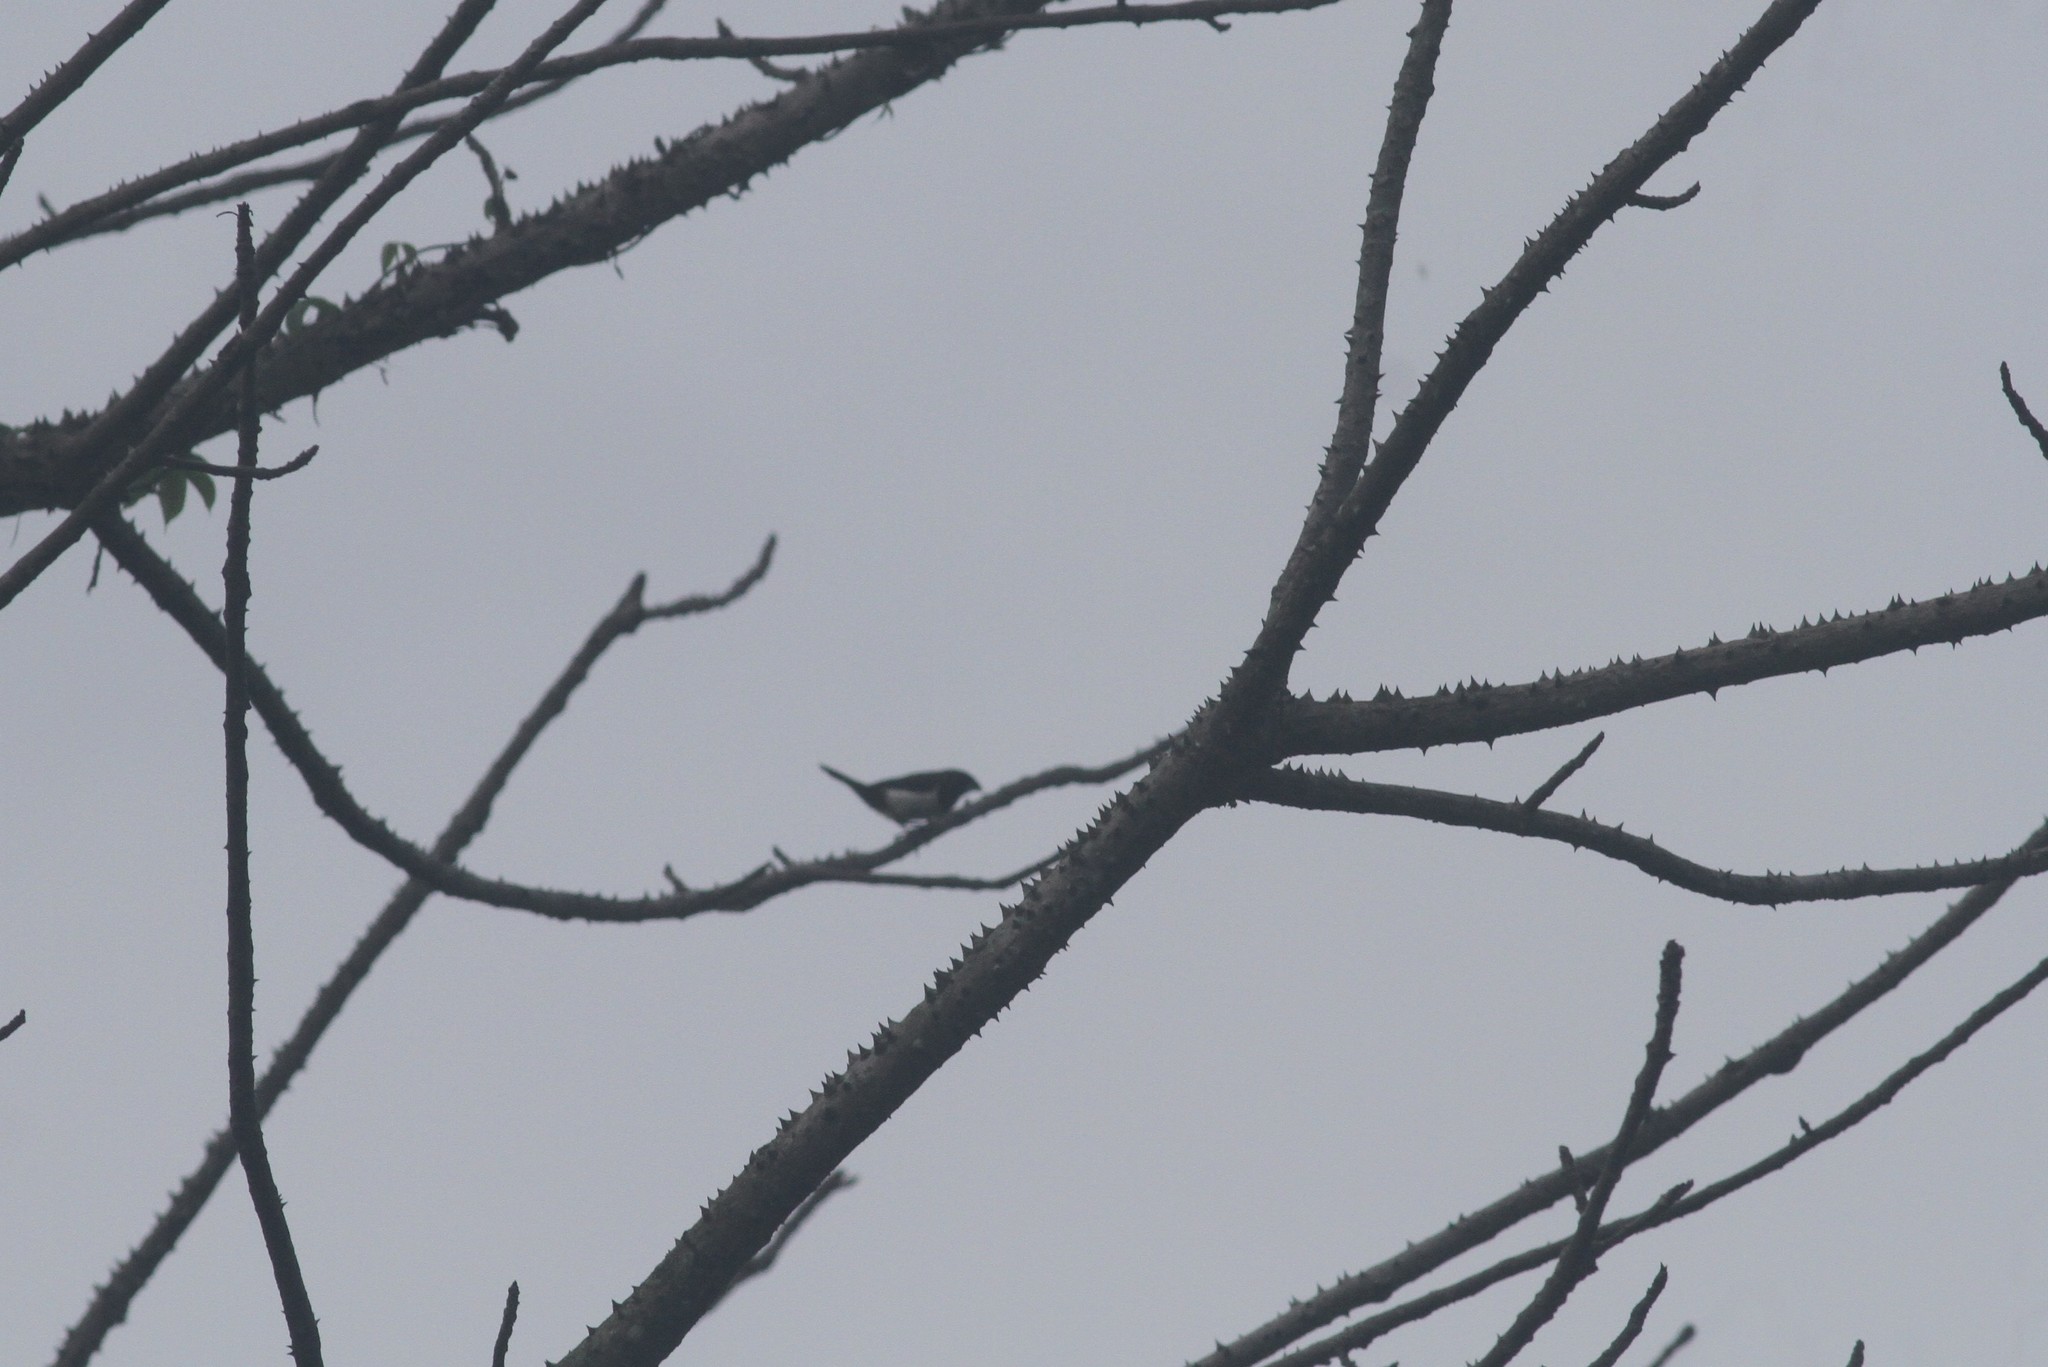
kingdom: Animalia
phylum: Chordata
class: Aves
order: Passeriformes
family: Estrildidae
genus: Lonchura
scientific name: Lonchura striata
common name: White-rumped munia
